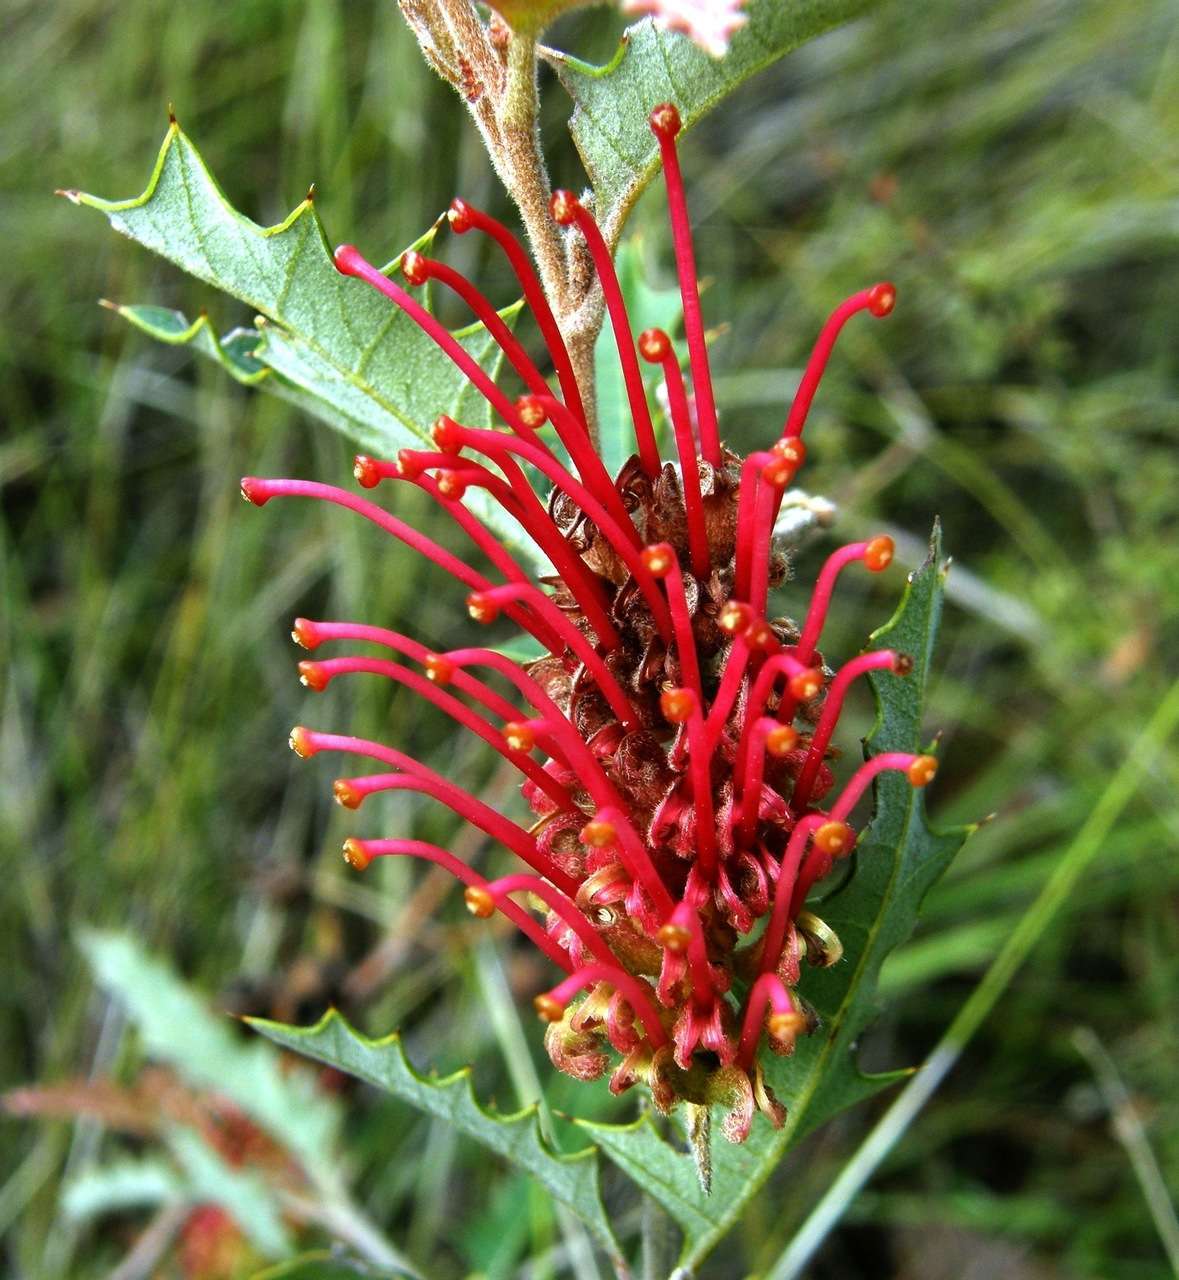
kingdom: Plantae
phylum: Tracheophyta
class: Magnoliopsida
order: Proteales
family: Proteaceae
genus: Grevillea
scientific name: Grevillea aquifolium
